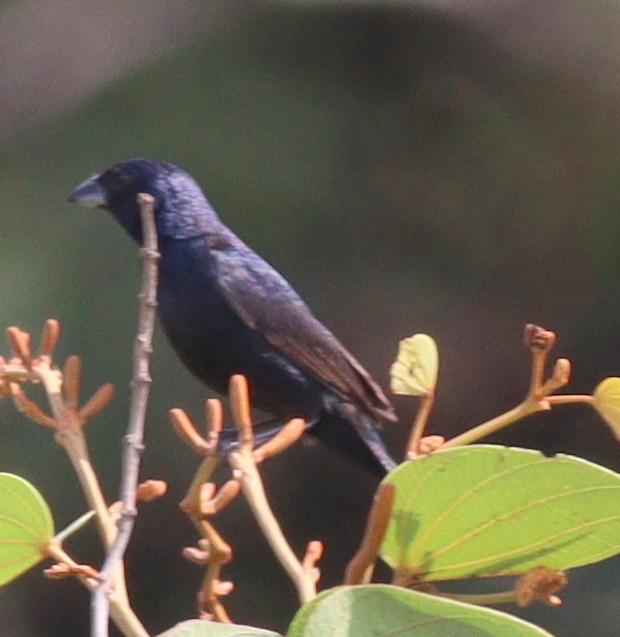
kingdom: Animalia
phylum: Chordata
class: Aves
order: Passeriformes
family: Thraupidae
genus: Volatinia
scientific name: Volatinia jacarina
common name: Blue-black grassquit
